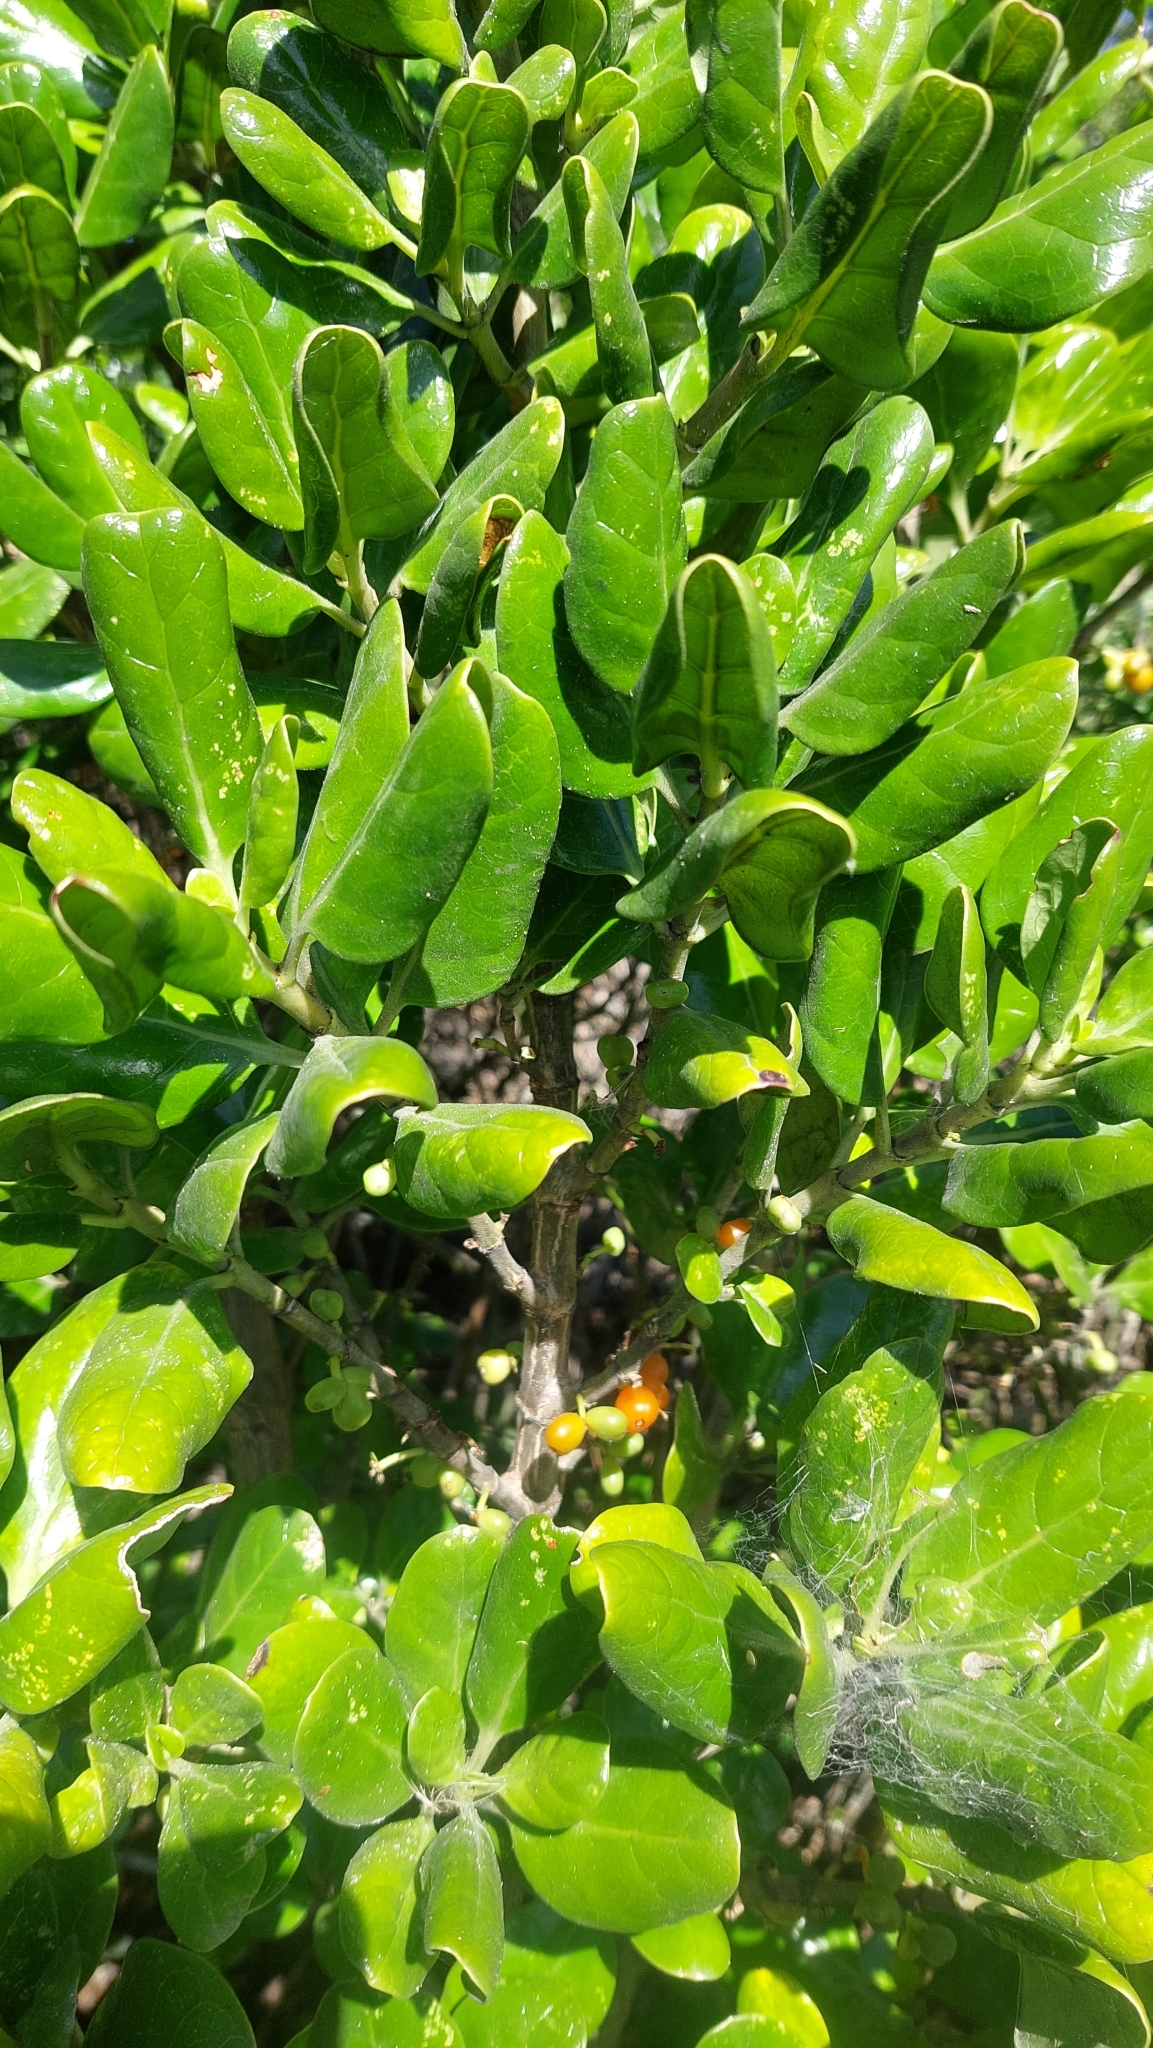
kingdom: Plantae
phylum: Tracheophyta
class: Magnoliopsida
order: Gentianales
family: Rubiaceae
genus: Coprosma
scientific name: Coprosma repens
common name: Tree bedstraw
